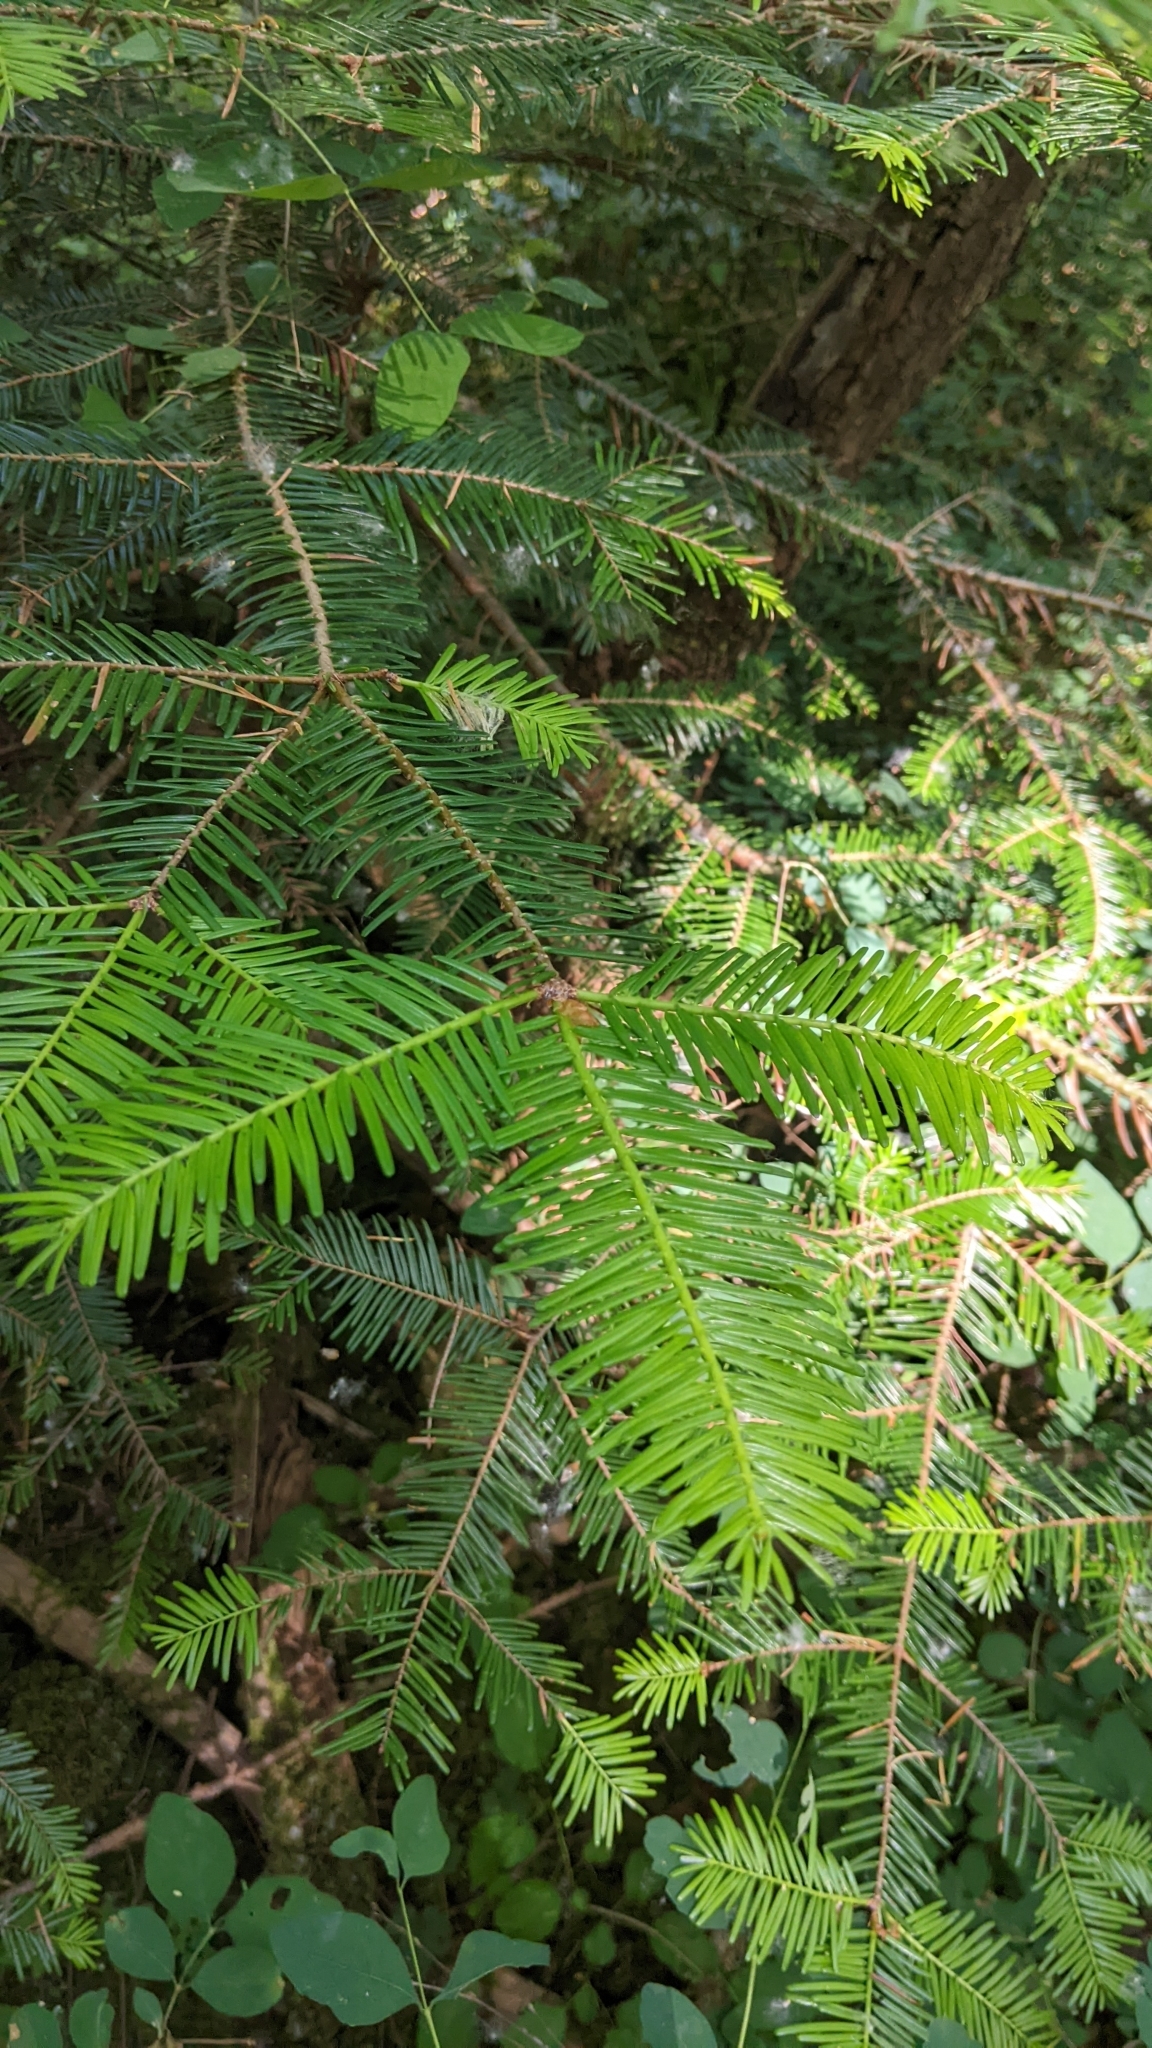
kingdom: Plantae
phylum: Tracheophyta
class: Pinopsida
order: Pinales
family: Pinaceae
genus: Abies
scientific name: Abies grandis
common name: Giant fir
